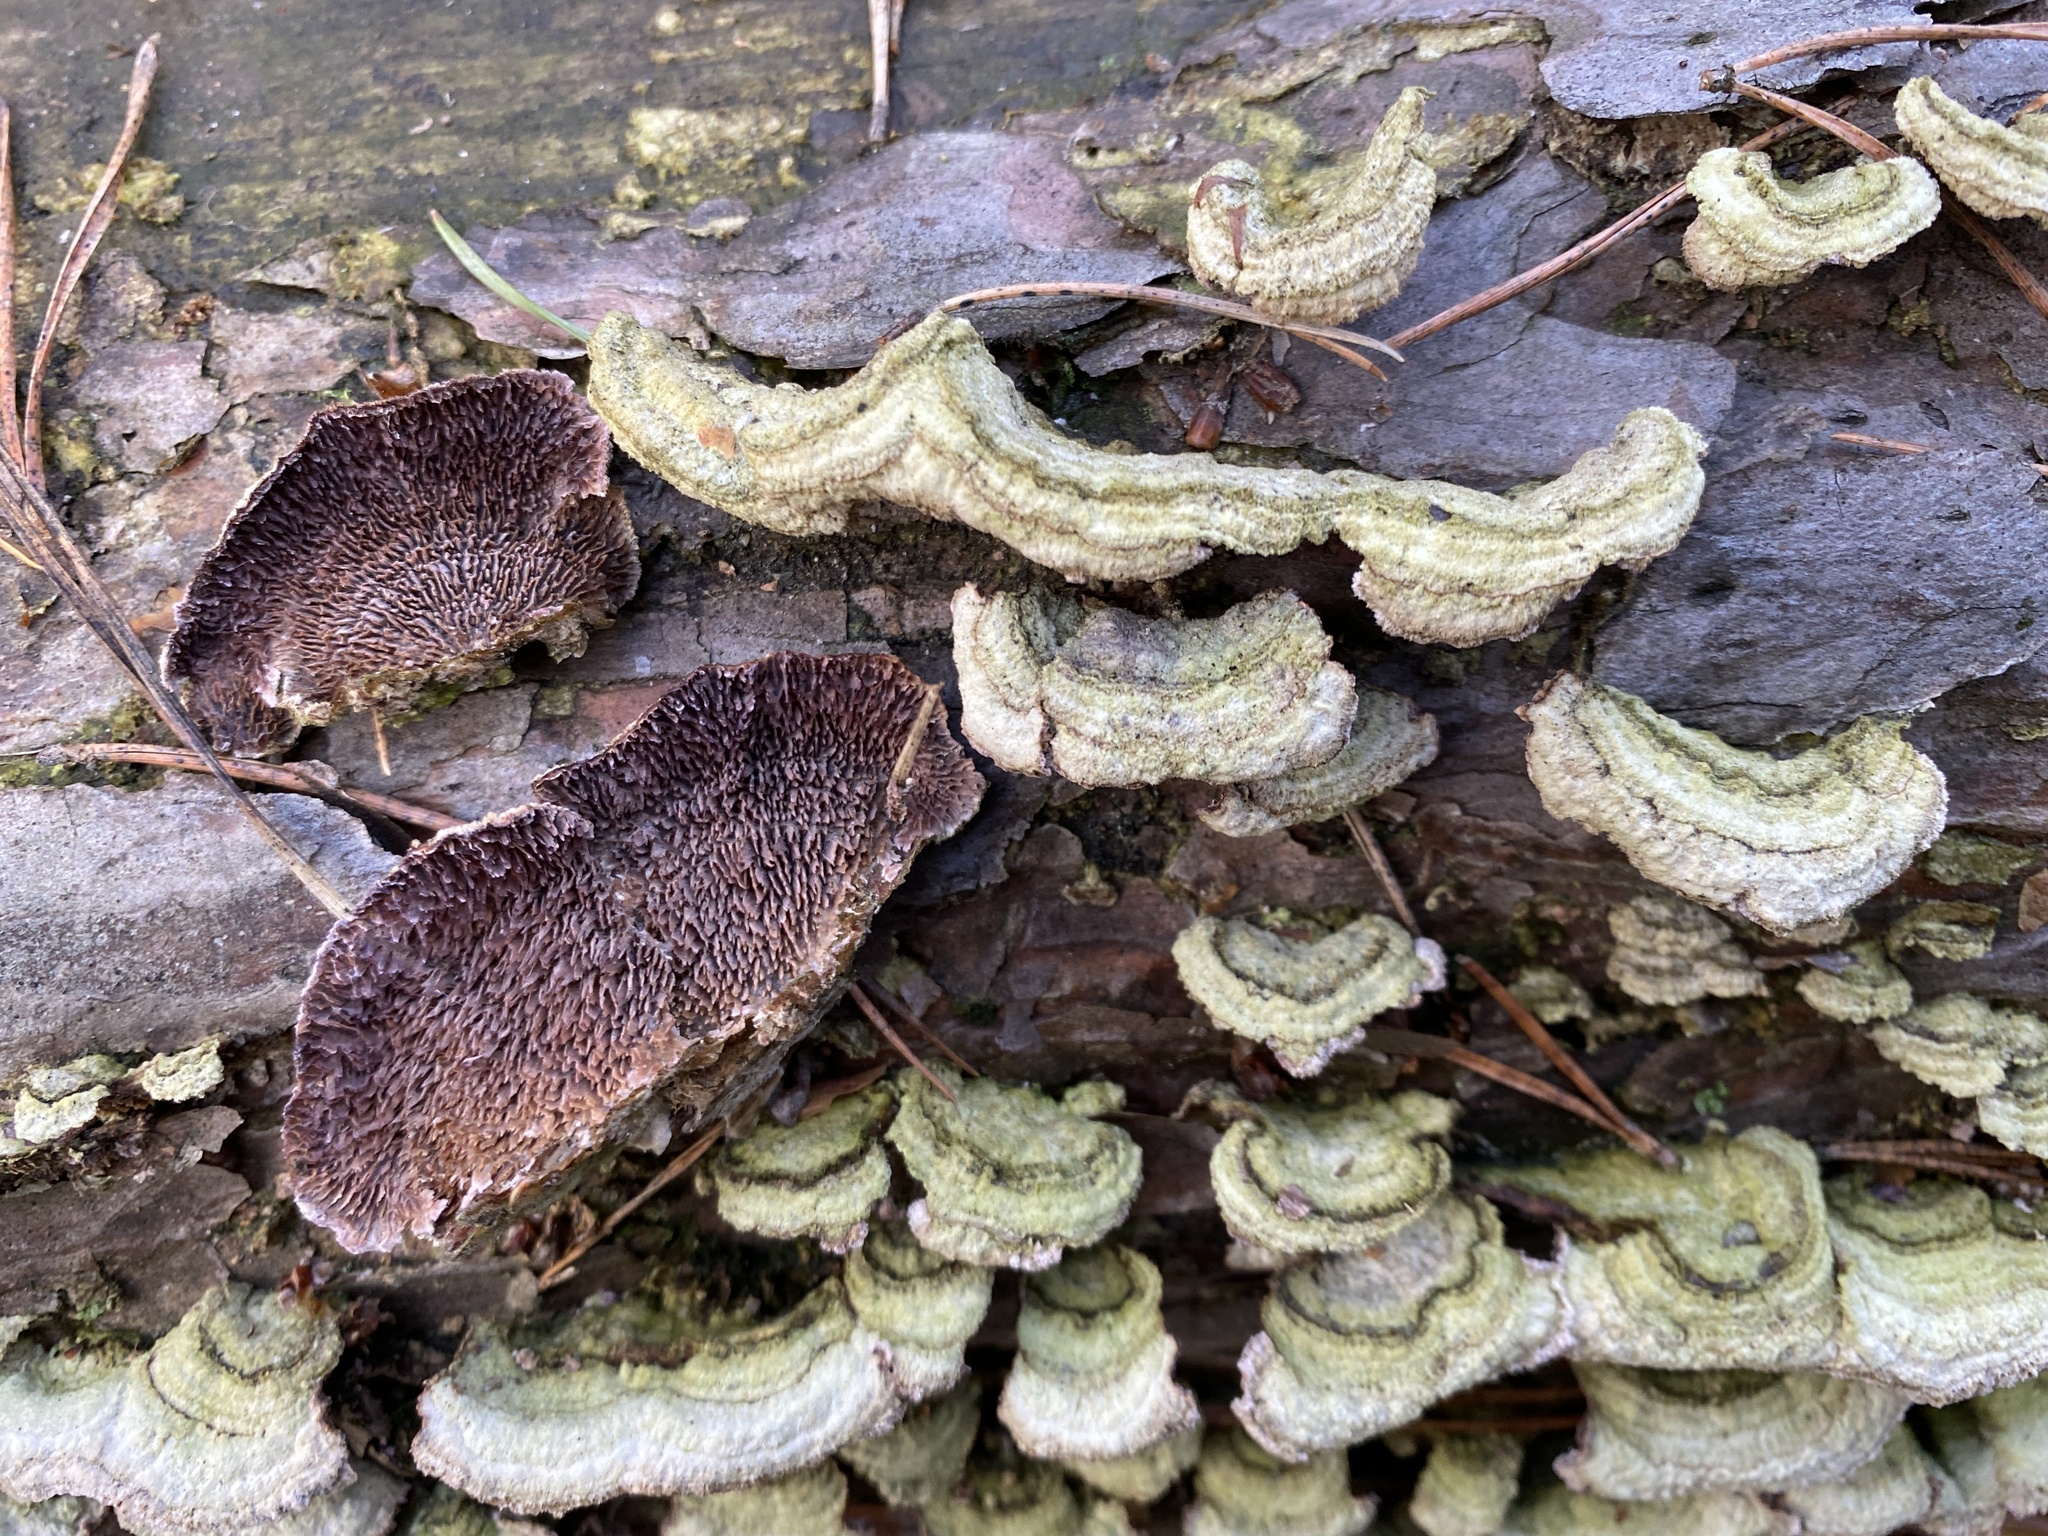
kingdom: Fungi
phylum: Basidiomycota
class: Agaricomycetes
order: Hymenochaetales
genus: Trichaptum
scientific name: Trichaptum fuscoviolaceum
